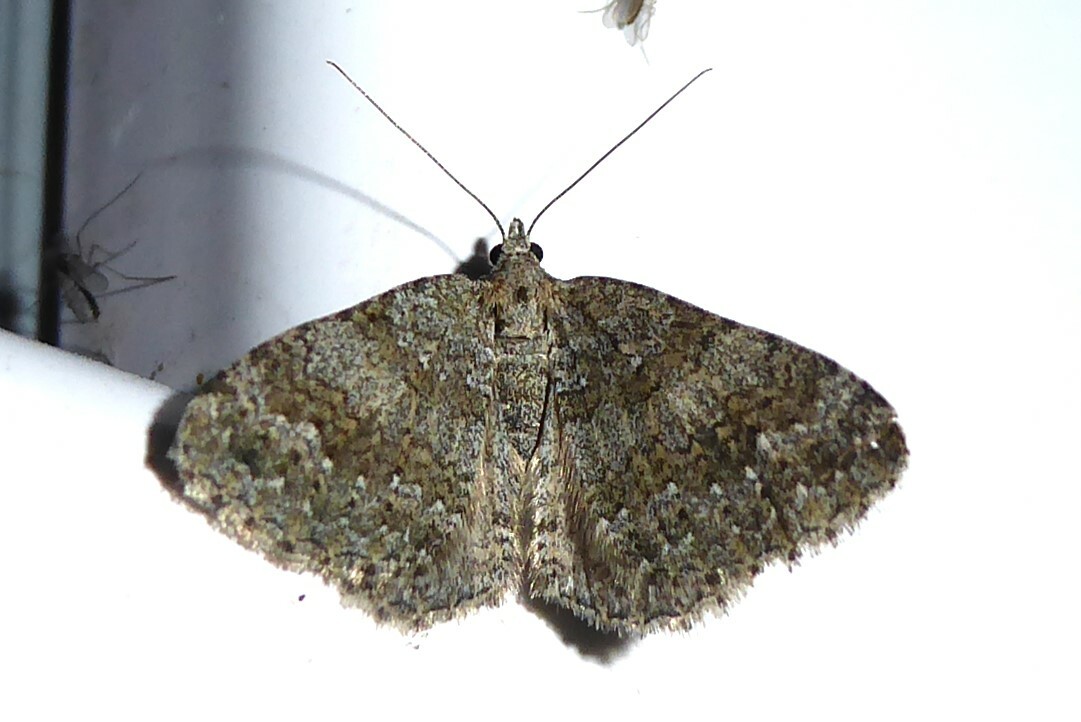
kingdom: Animalia
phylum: Arthropoda
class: Insecta
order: Lepidoptera
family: Geometridae
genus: Helastia
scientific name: Helastia corcularia
